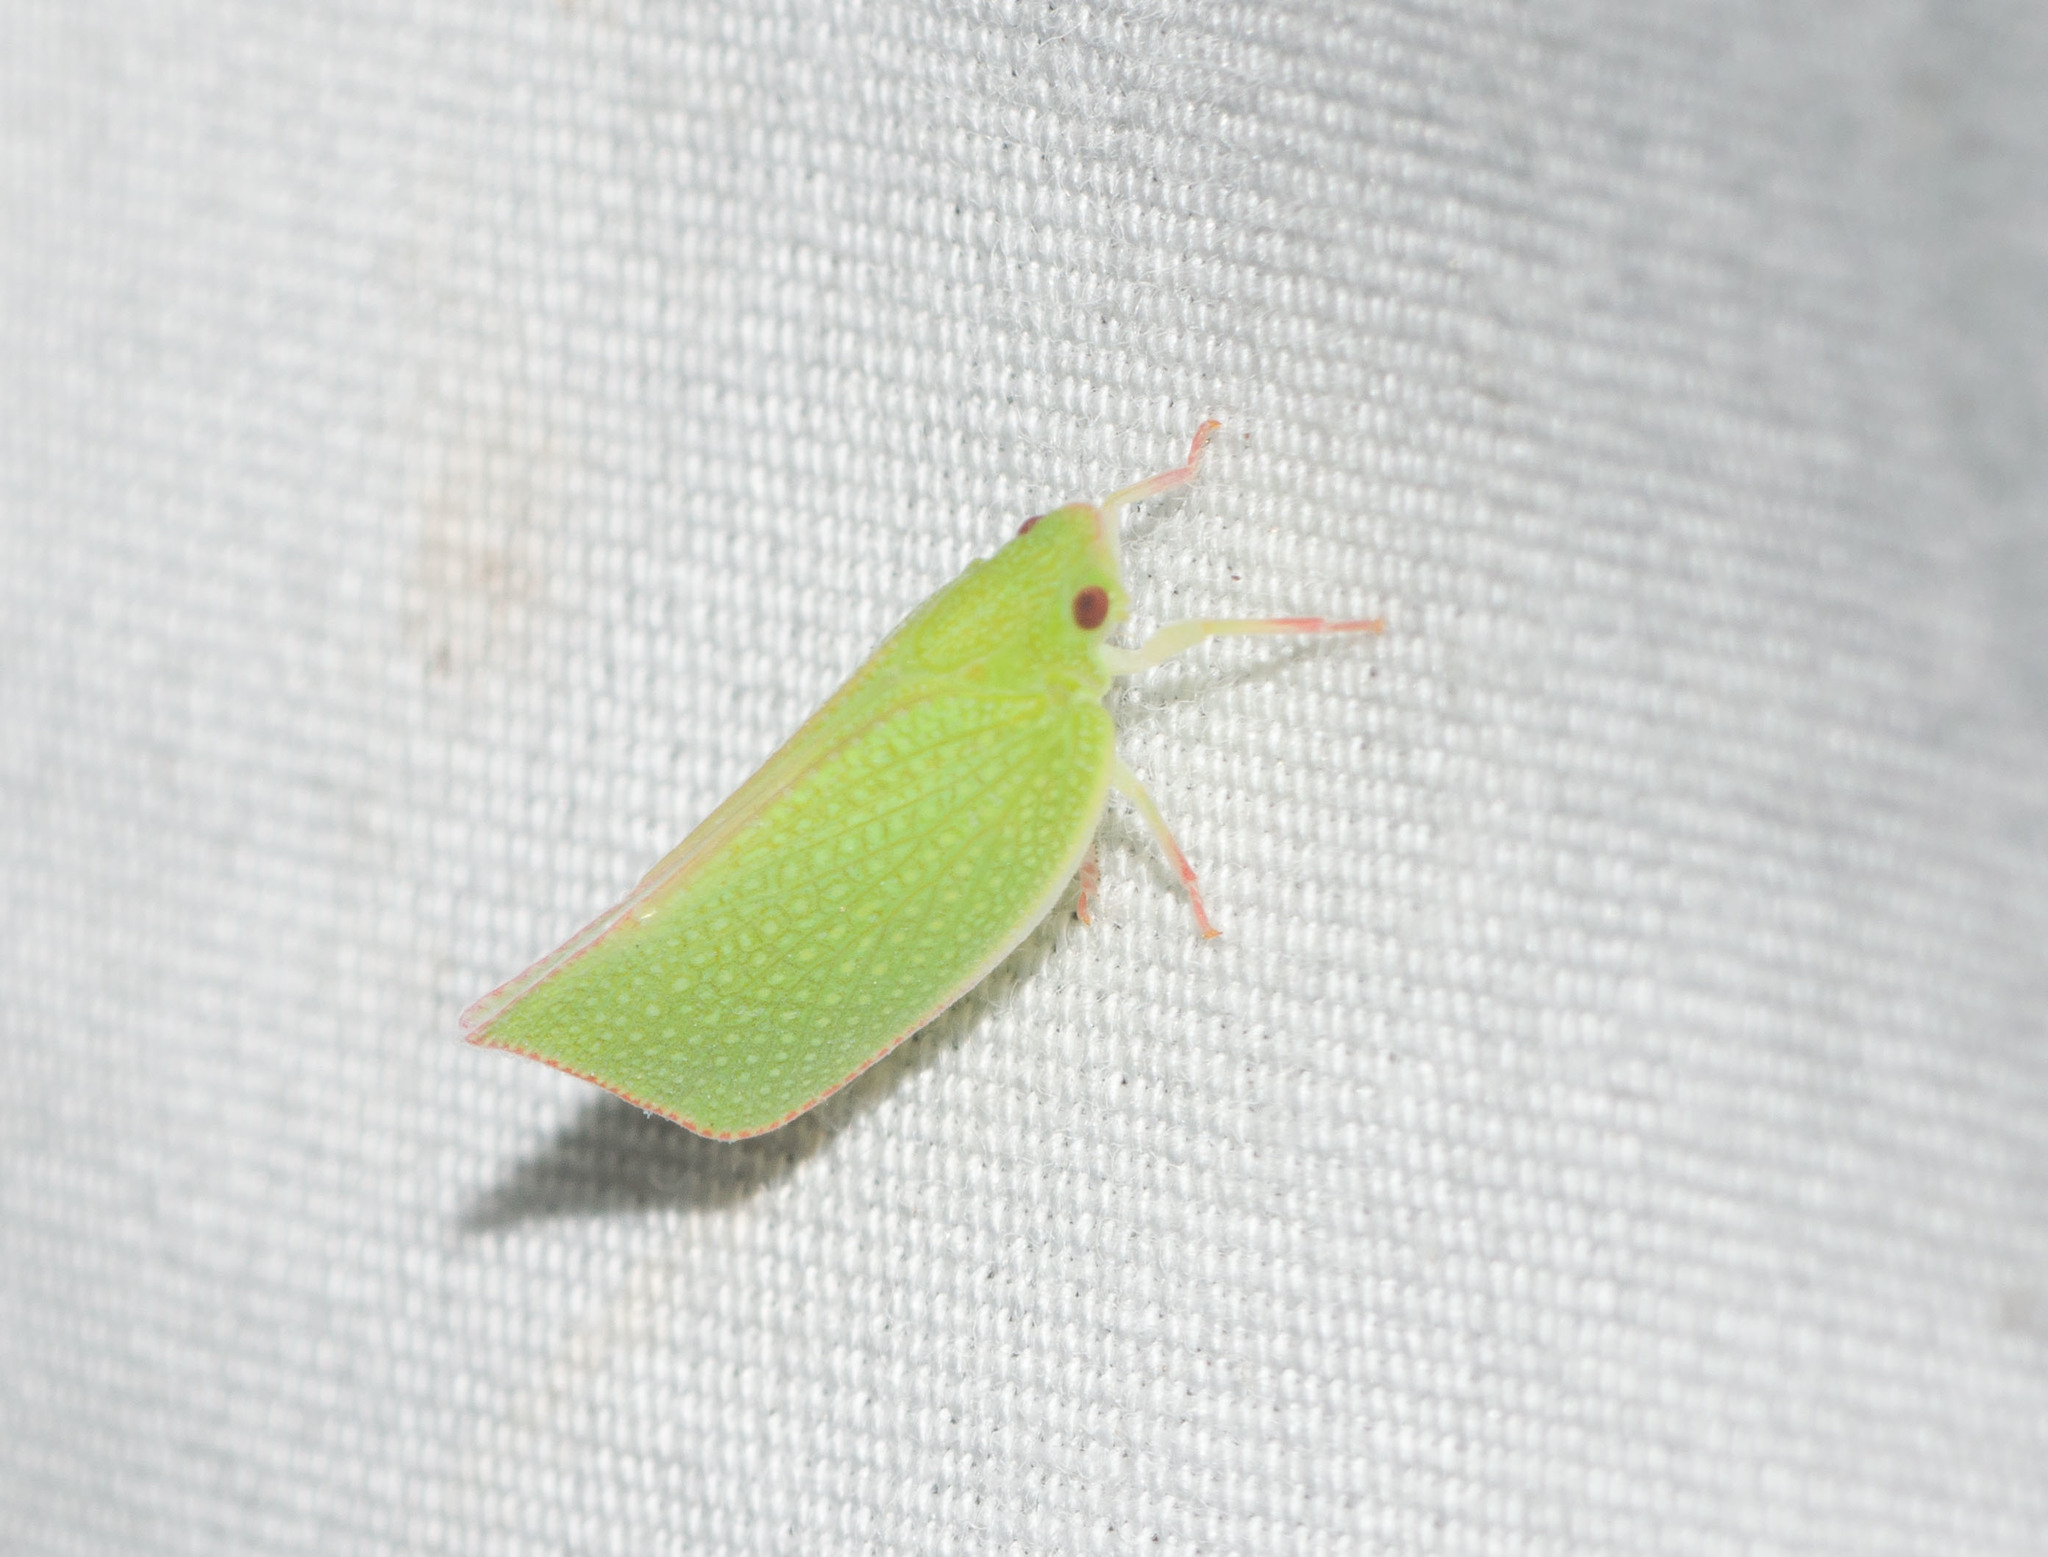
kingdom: Animalia
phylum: Arthropoda
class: Insecta
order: Hemiptera
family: Flatidae
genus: Siphanta
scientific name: Siphanta acuta
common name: Torpedo bug
